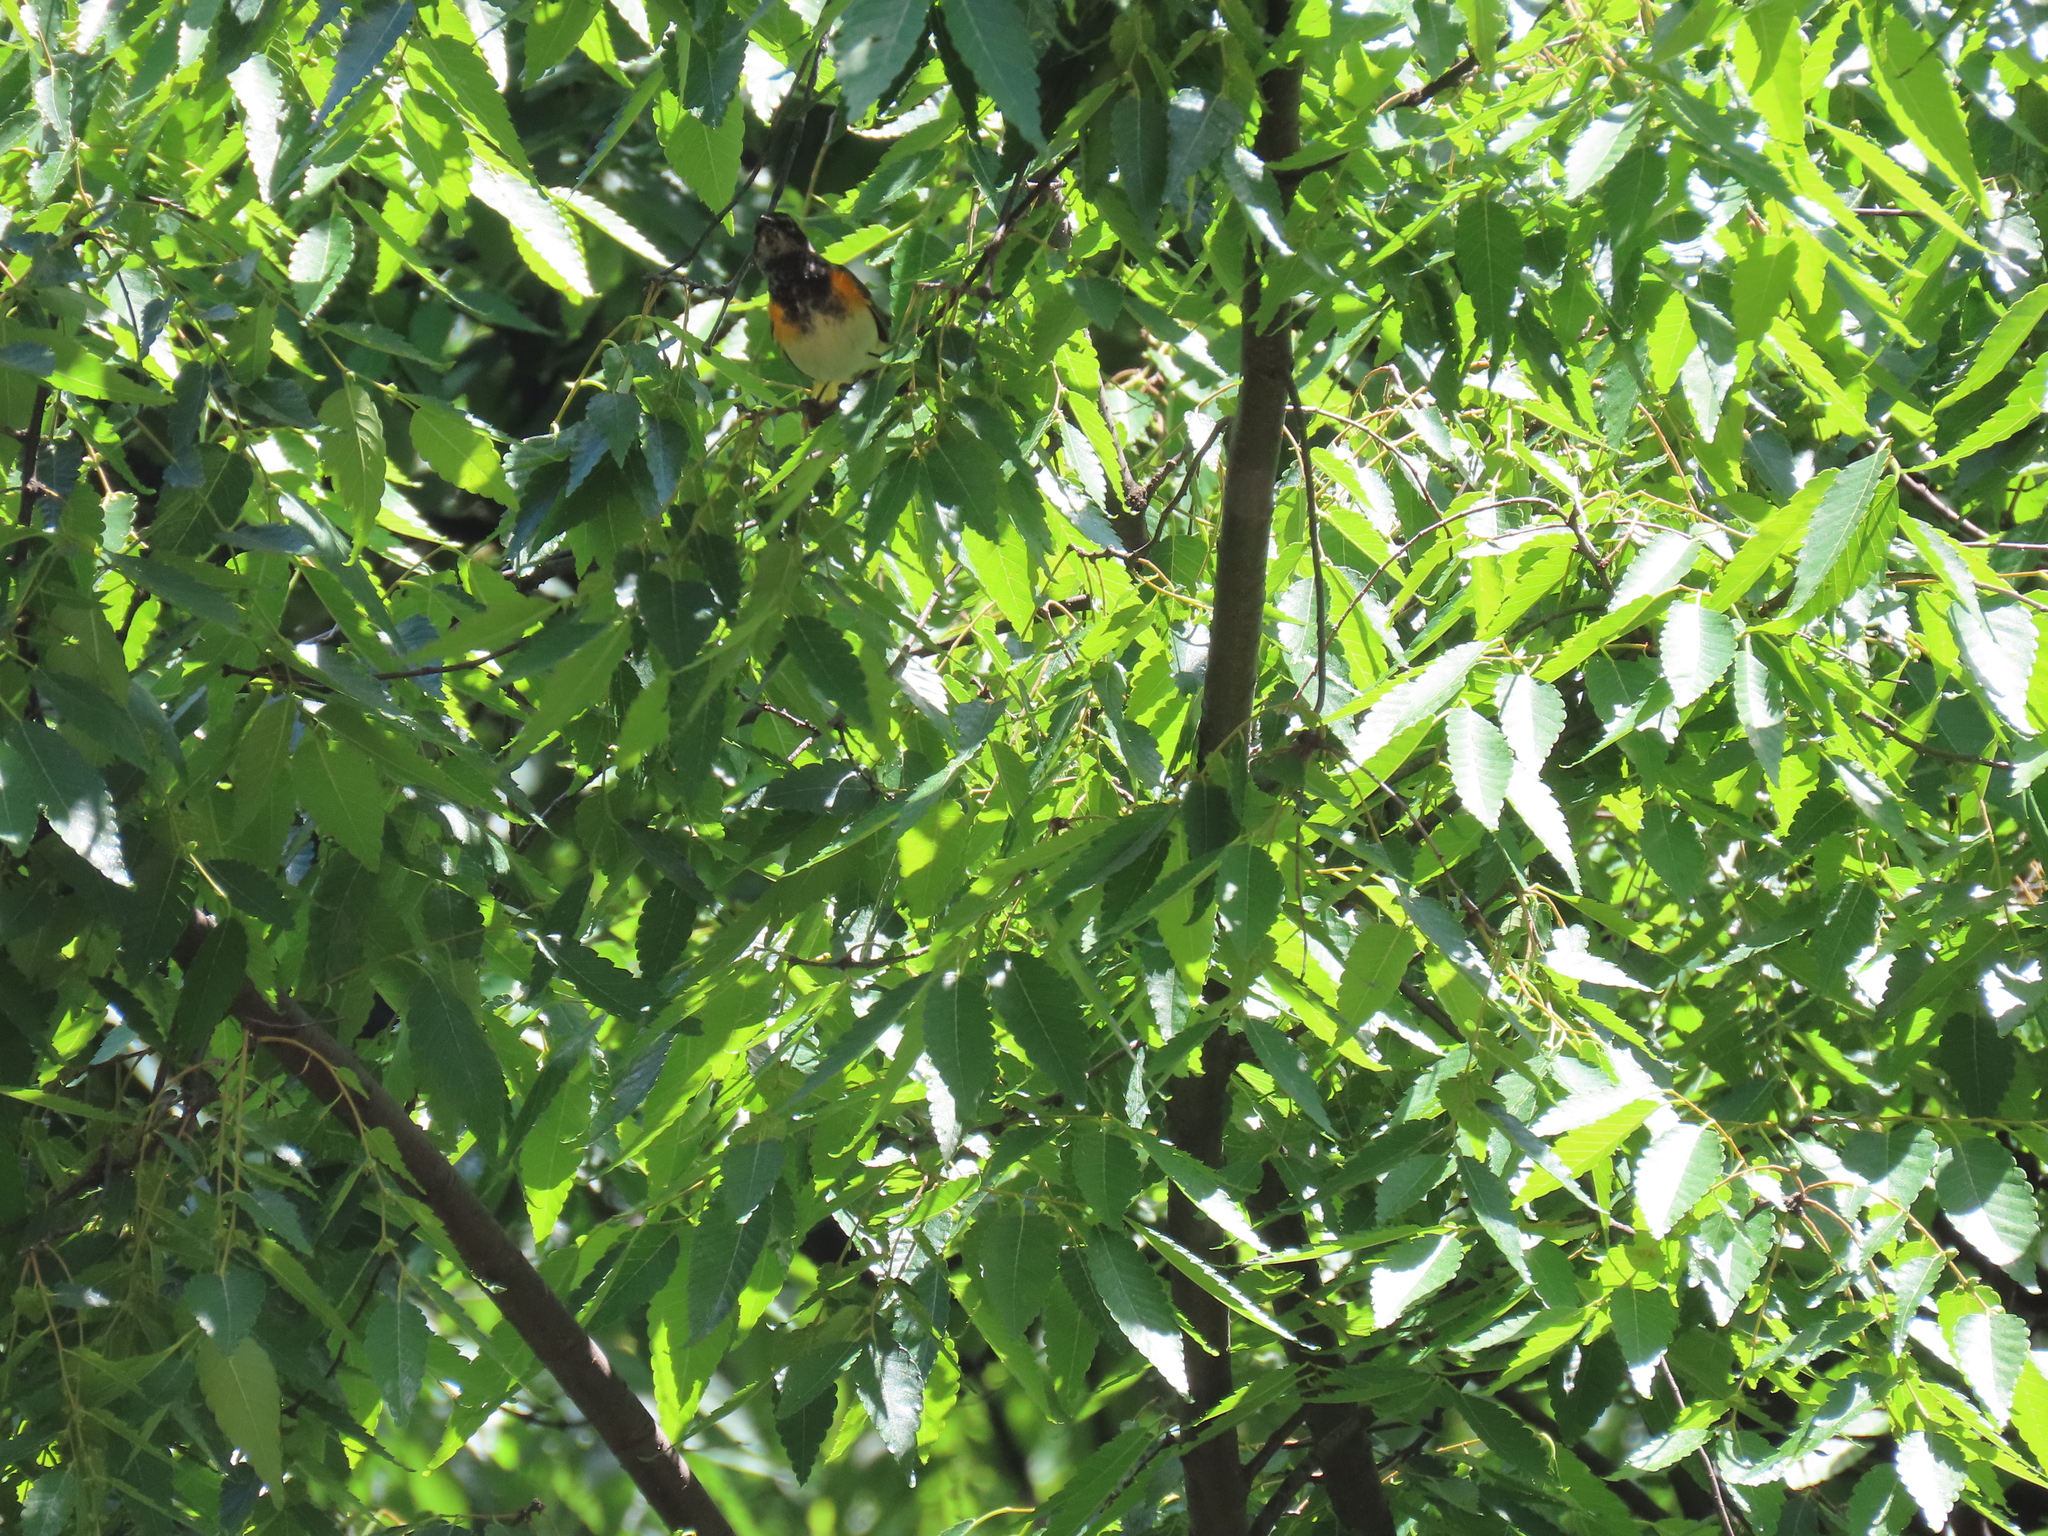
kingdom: Animalia
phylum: Chordata
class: Aves
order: Passeriformes
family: Parulidae
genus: Setophaga
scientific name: Setophaga ruticilla
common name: American redstart
